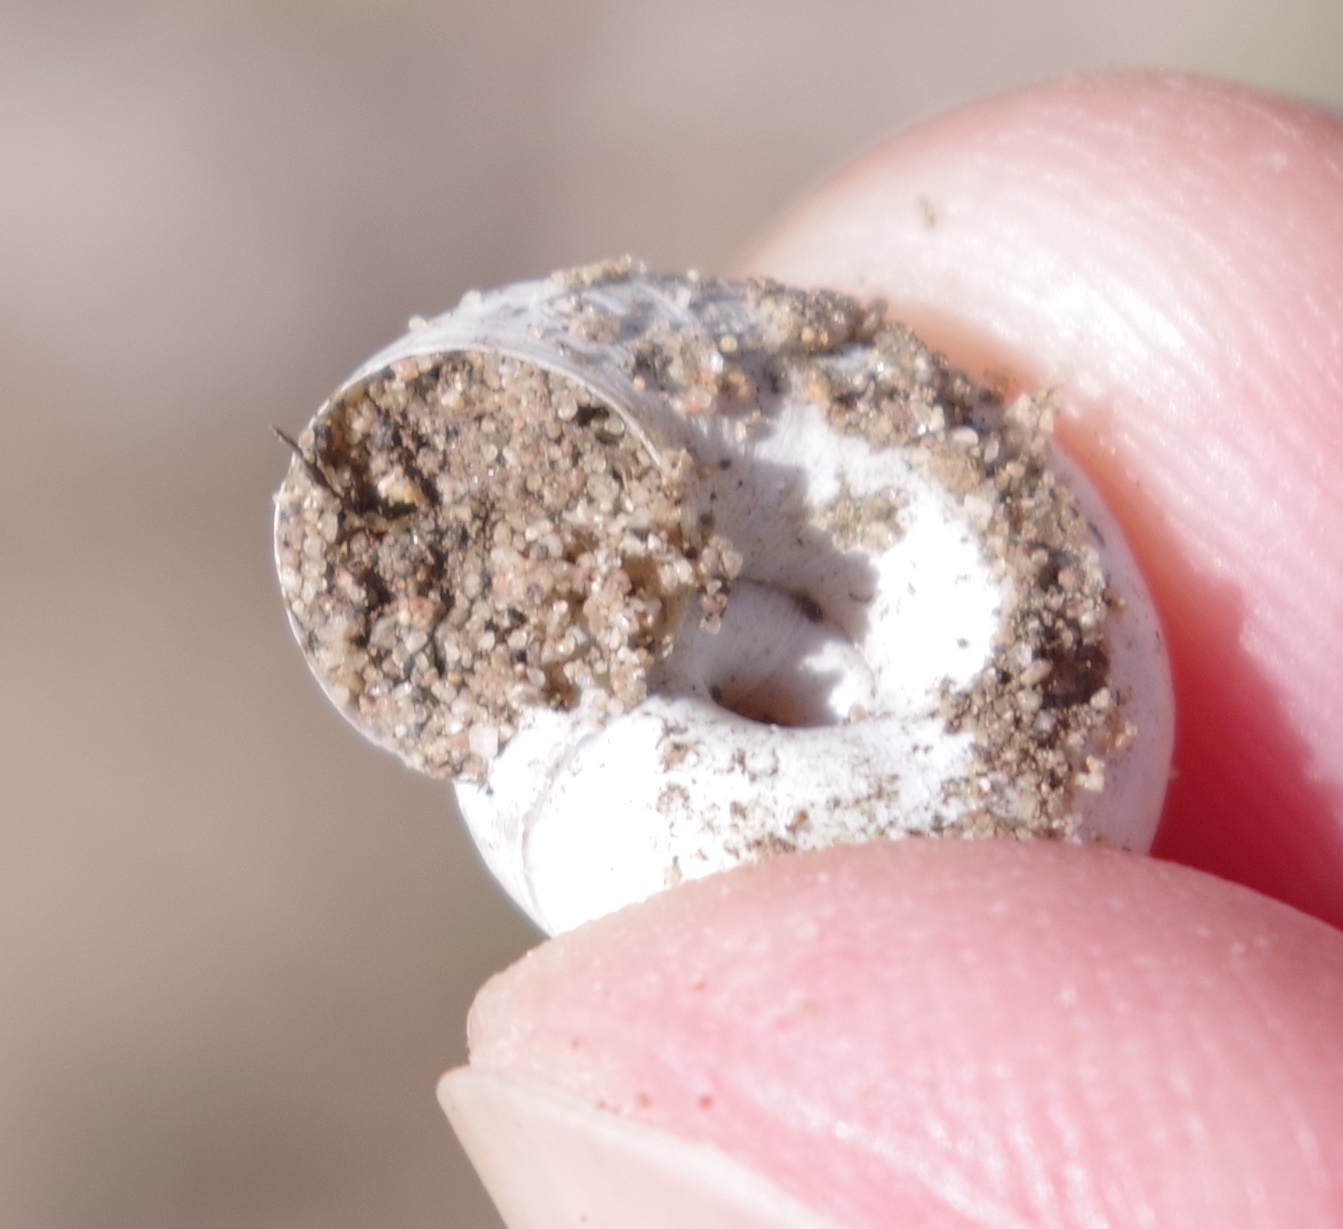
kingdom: Animalia
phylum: Mollusca
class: Gastropoda
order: Stylommatophora
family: Geomitridae
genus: Xerolenta
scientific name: Xerolenta obvia
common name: White heath snail
